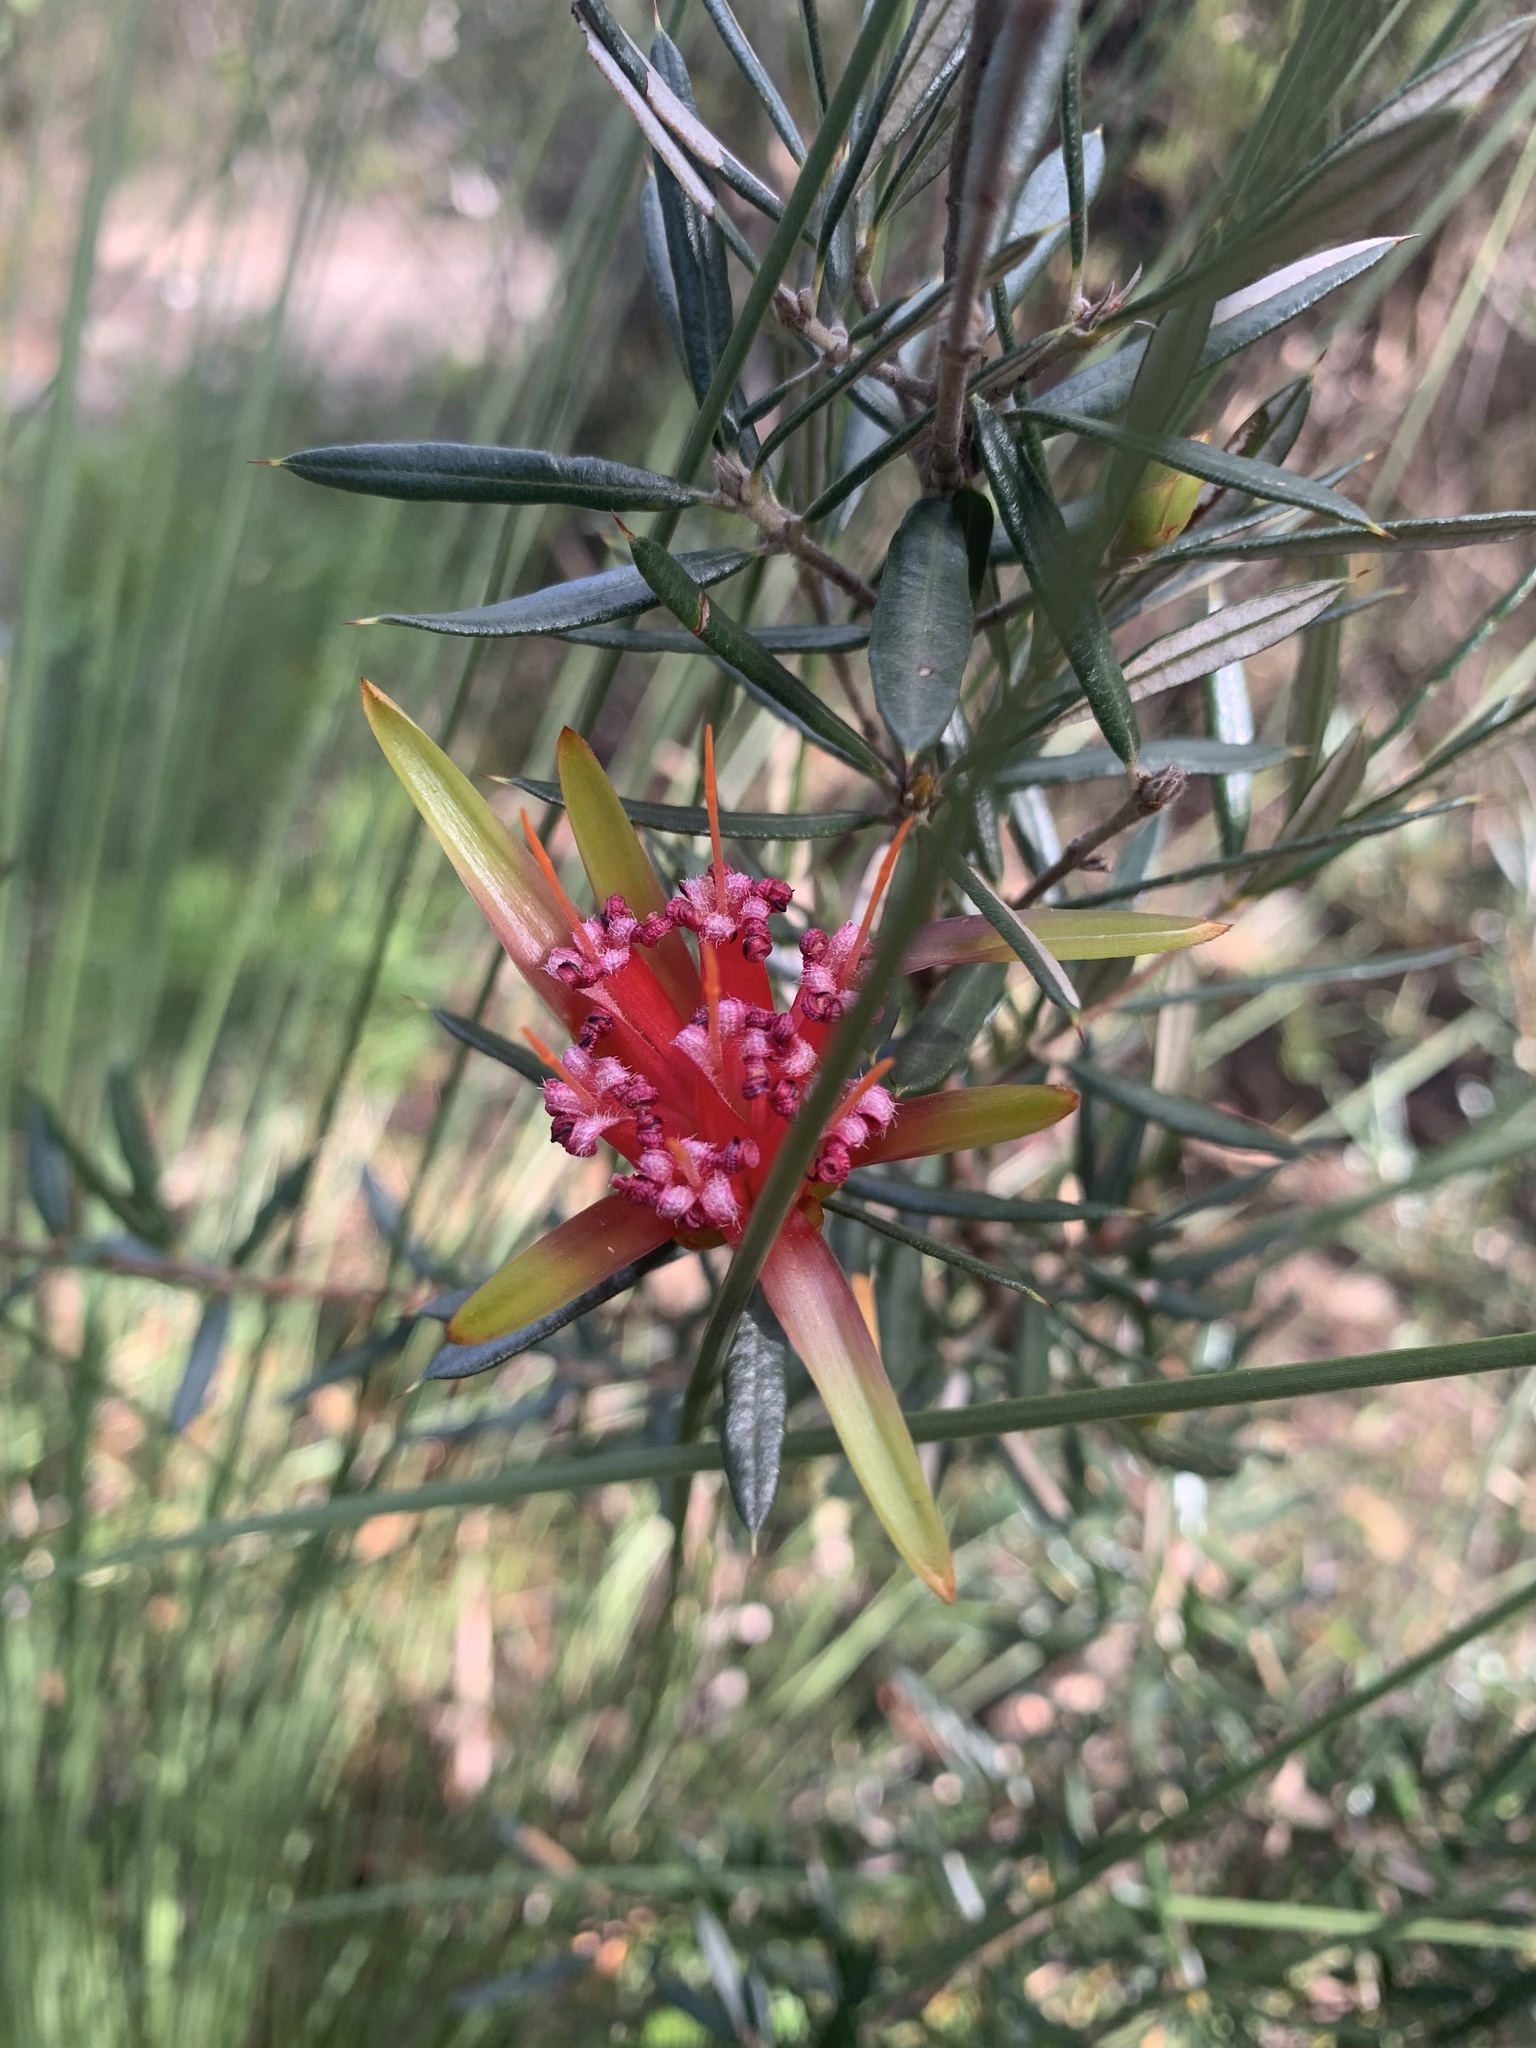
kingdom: Plantae
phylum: Tracheophyta
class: Magnoliopsida
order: Proteales
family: Proteaceae
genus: Lambertia
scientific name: Lambertia formosa
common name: Mountain-devil
